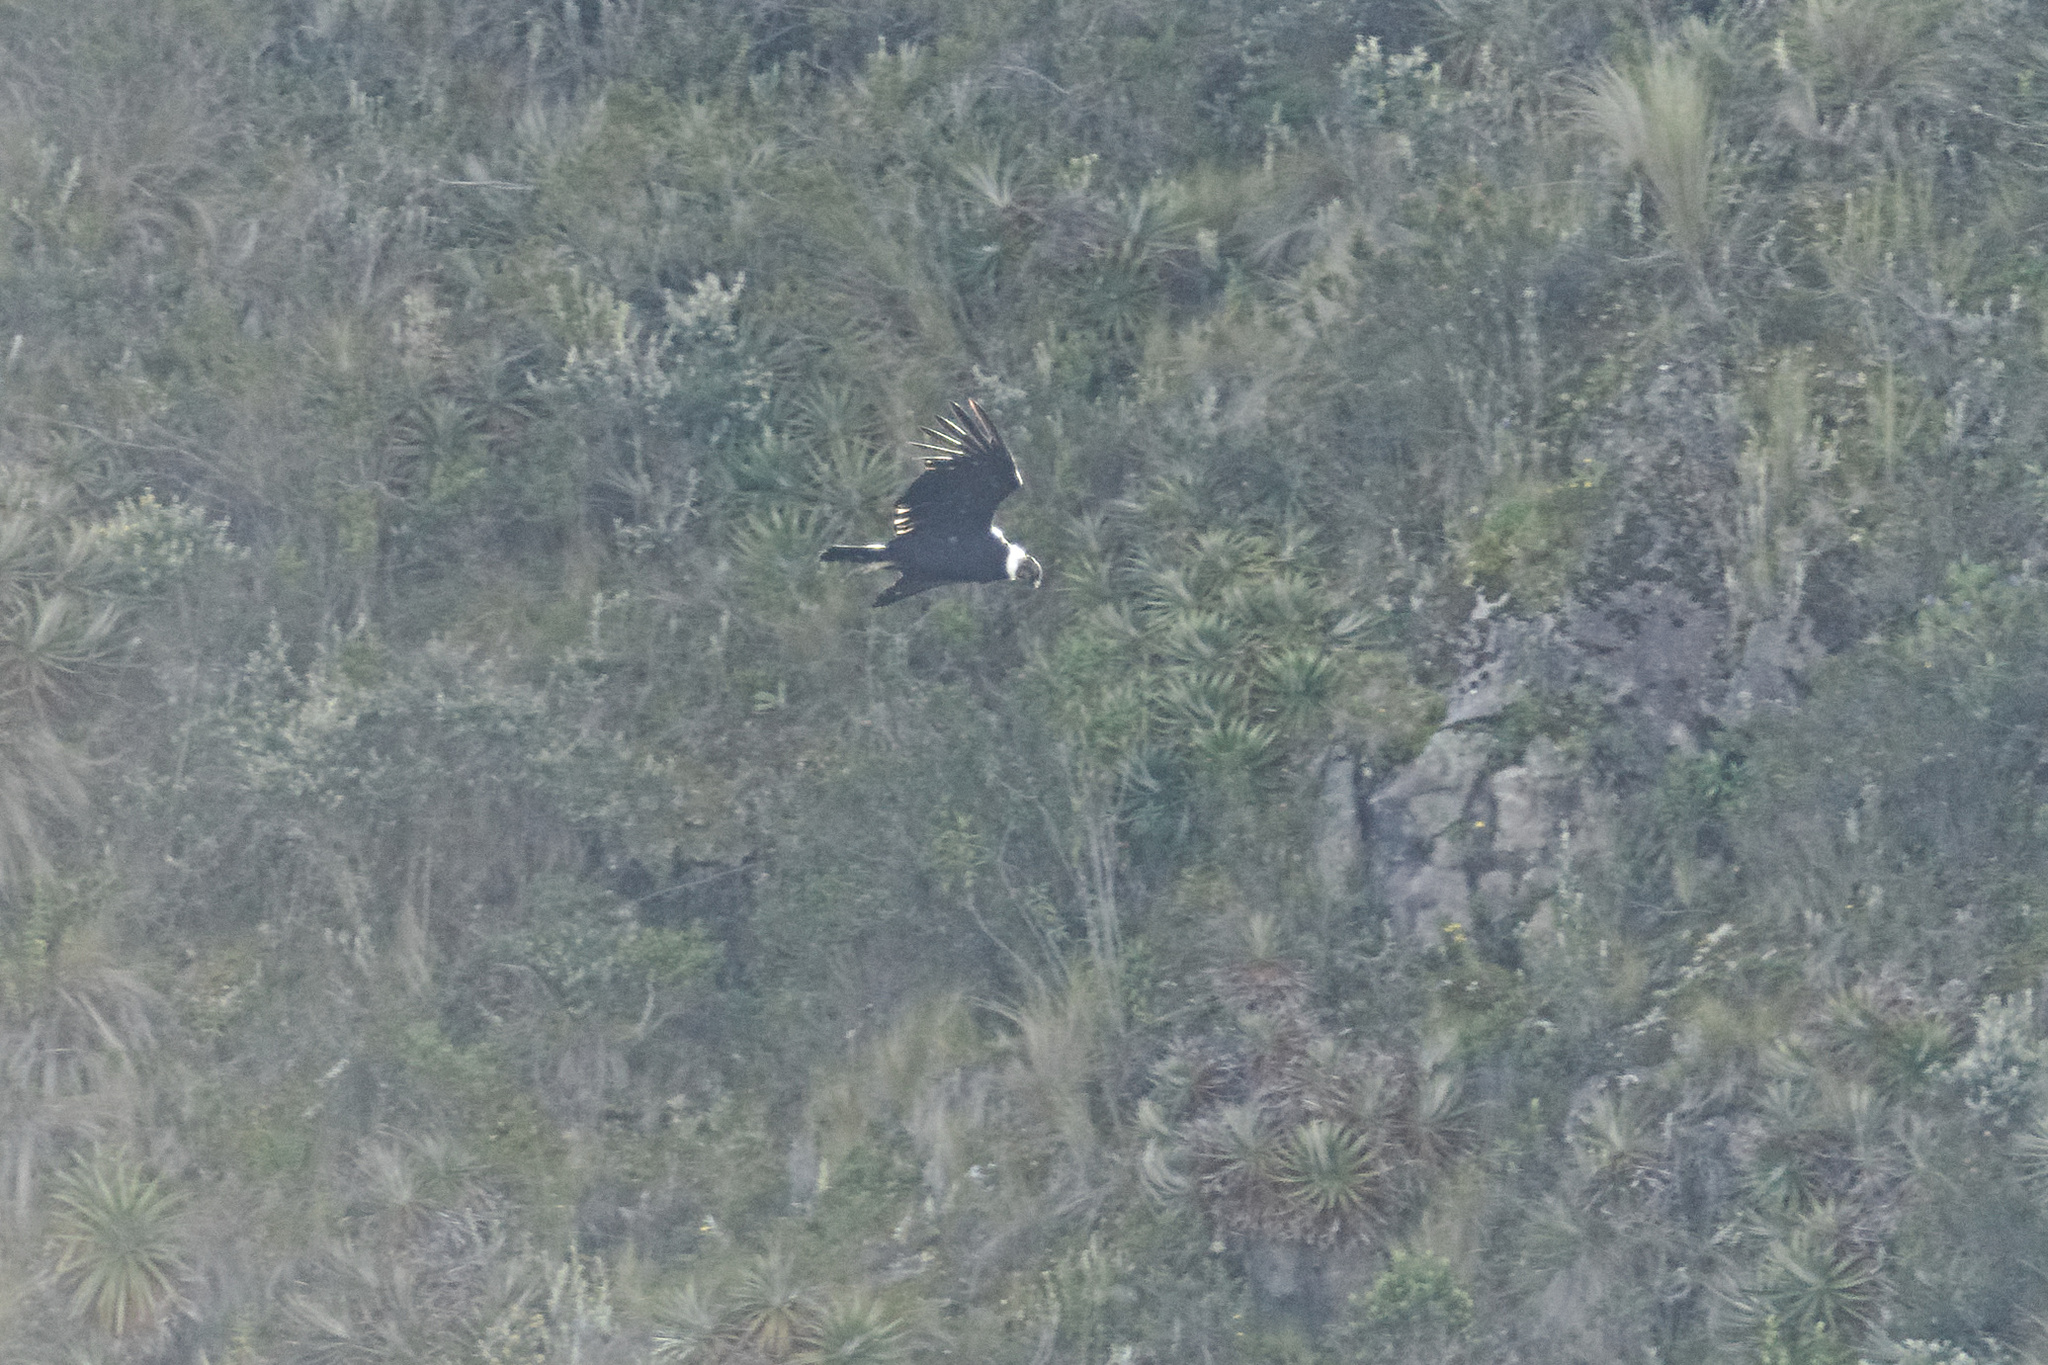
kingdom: Animalia
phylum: Chordata
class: Aves
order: Accipitriformes
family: Cathartidae
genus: Vultur
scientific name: Vultur gryphus
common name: Andean condor
